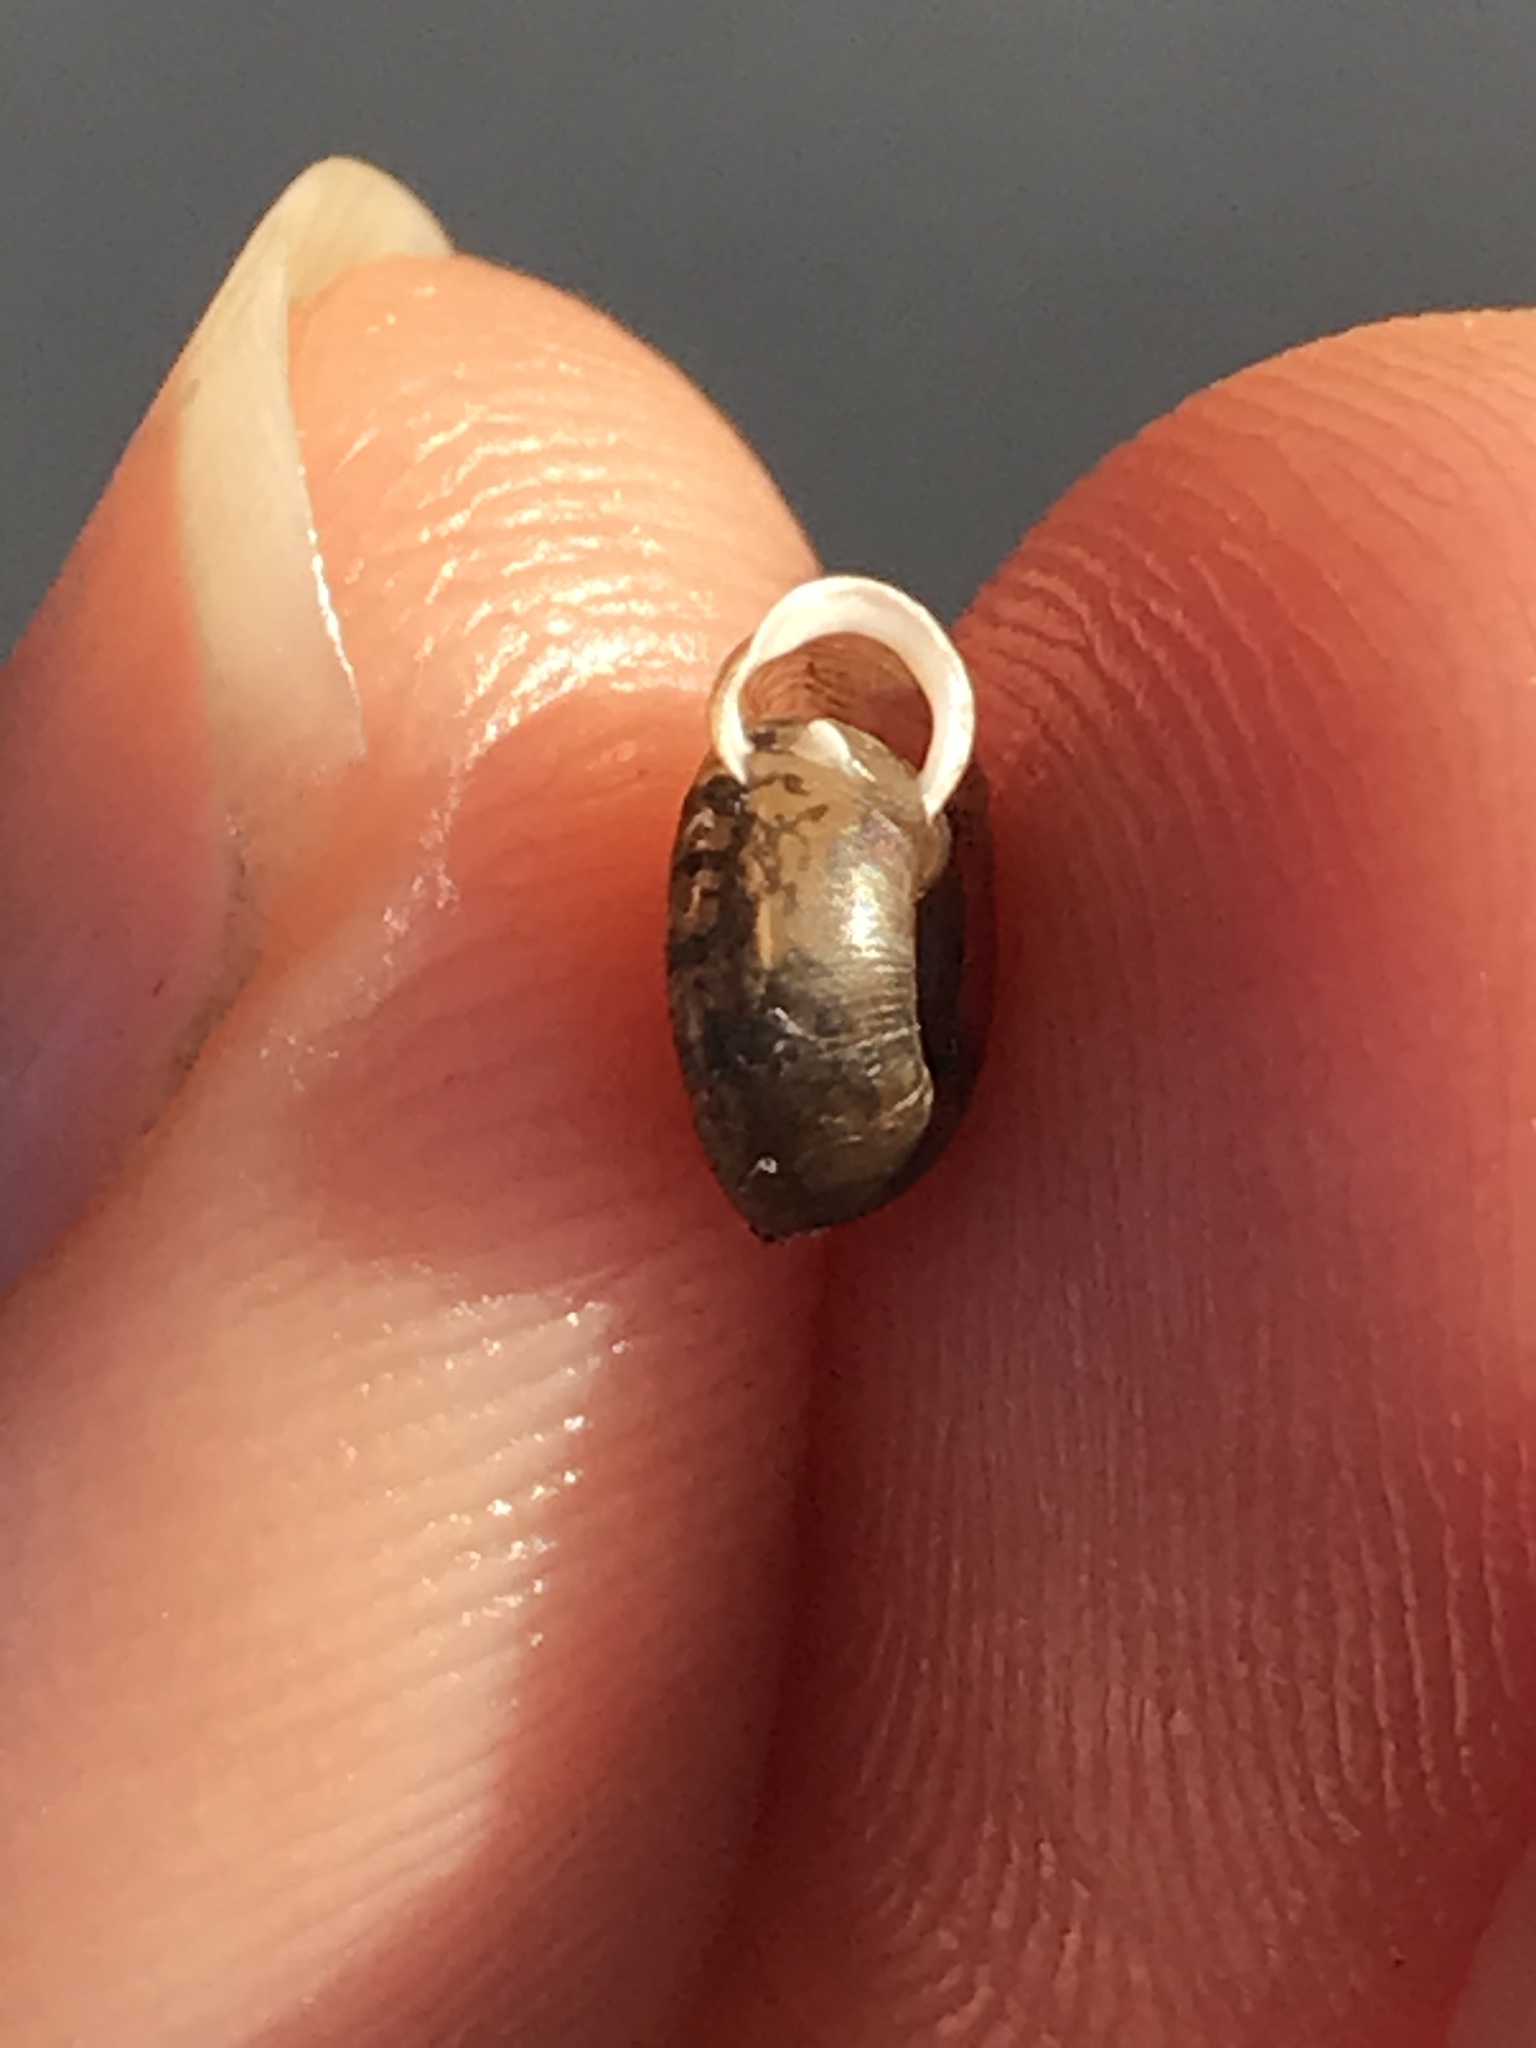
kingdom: Animalia
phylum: Mollusca
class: Gastropoda
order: Stylommatophora
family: Polygyridae
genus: Polygyra
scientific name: Polygyra cereolus
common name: Southern flatcone snail
